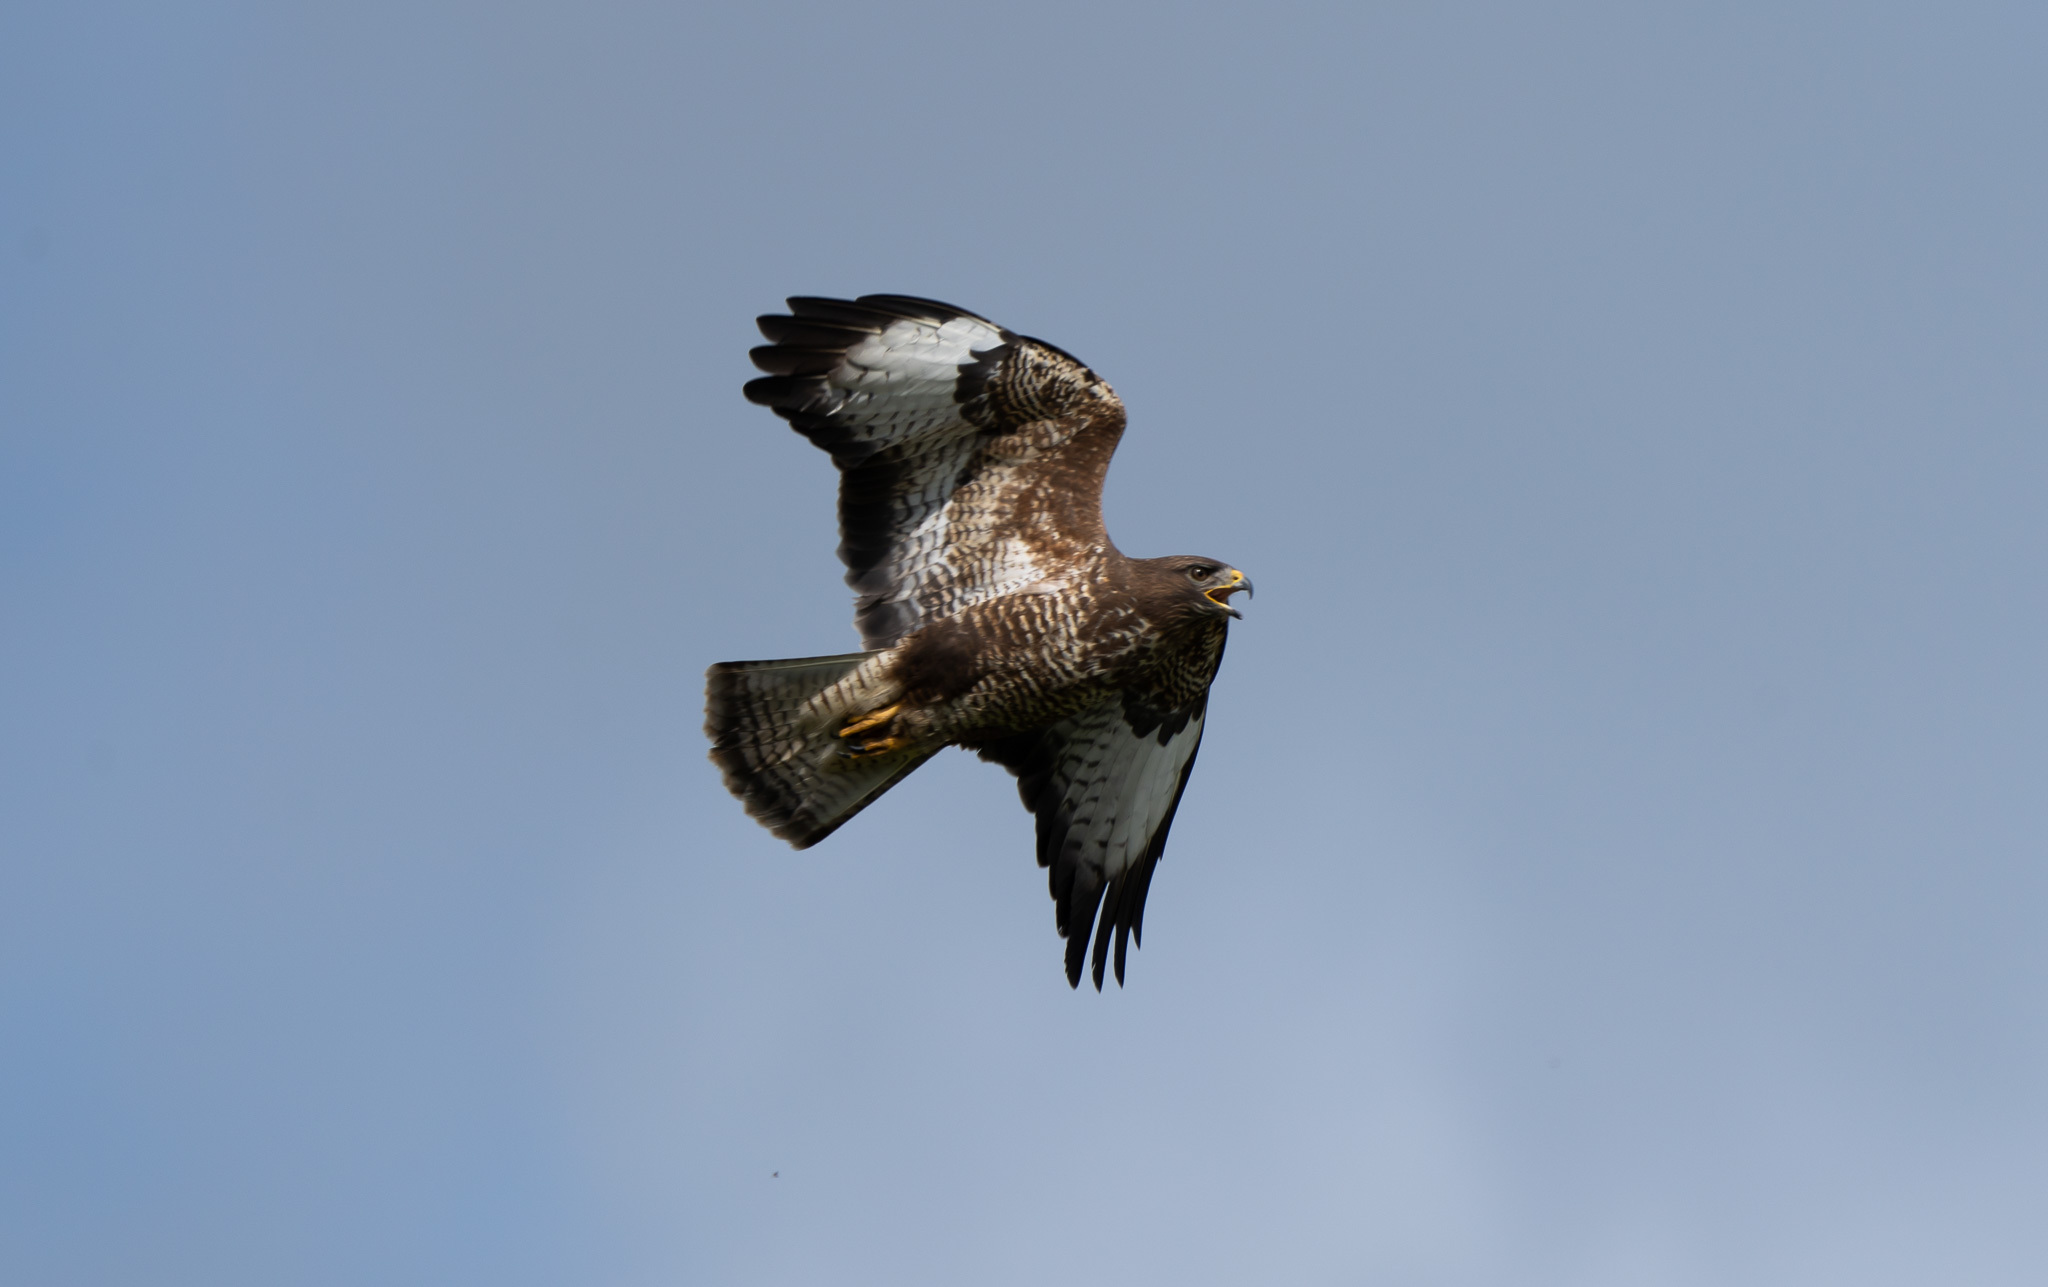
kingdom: Animalia
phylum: Chordata
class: Aves
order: Accipitriformes
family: Accipitridae
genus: Buteo
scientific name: Buteo buteo
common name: Common buzzard
